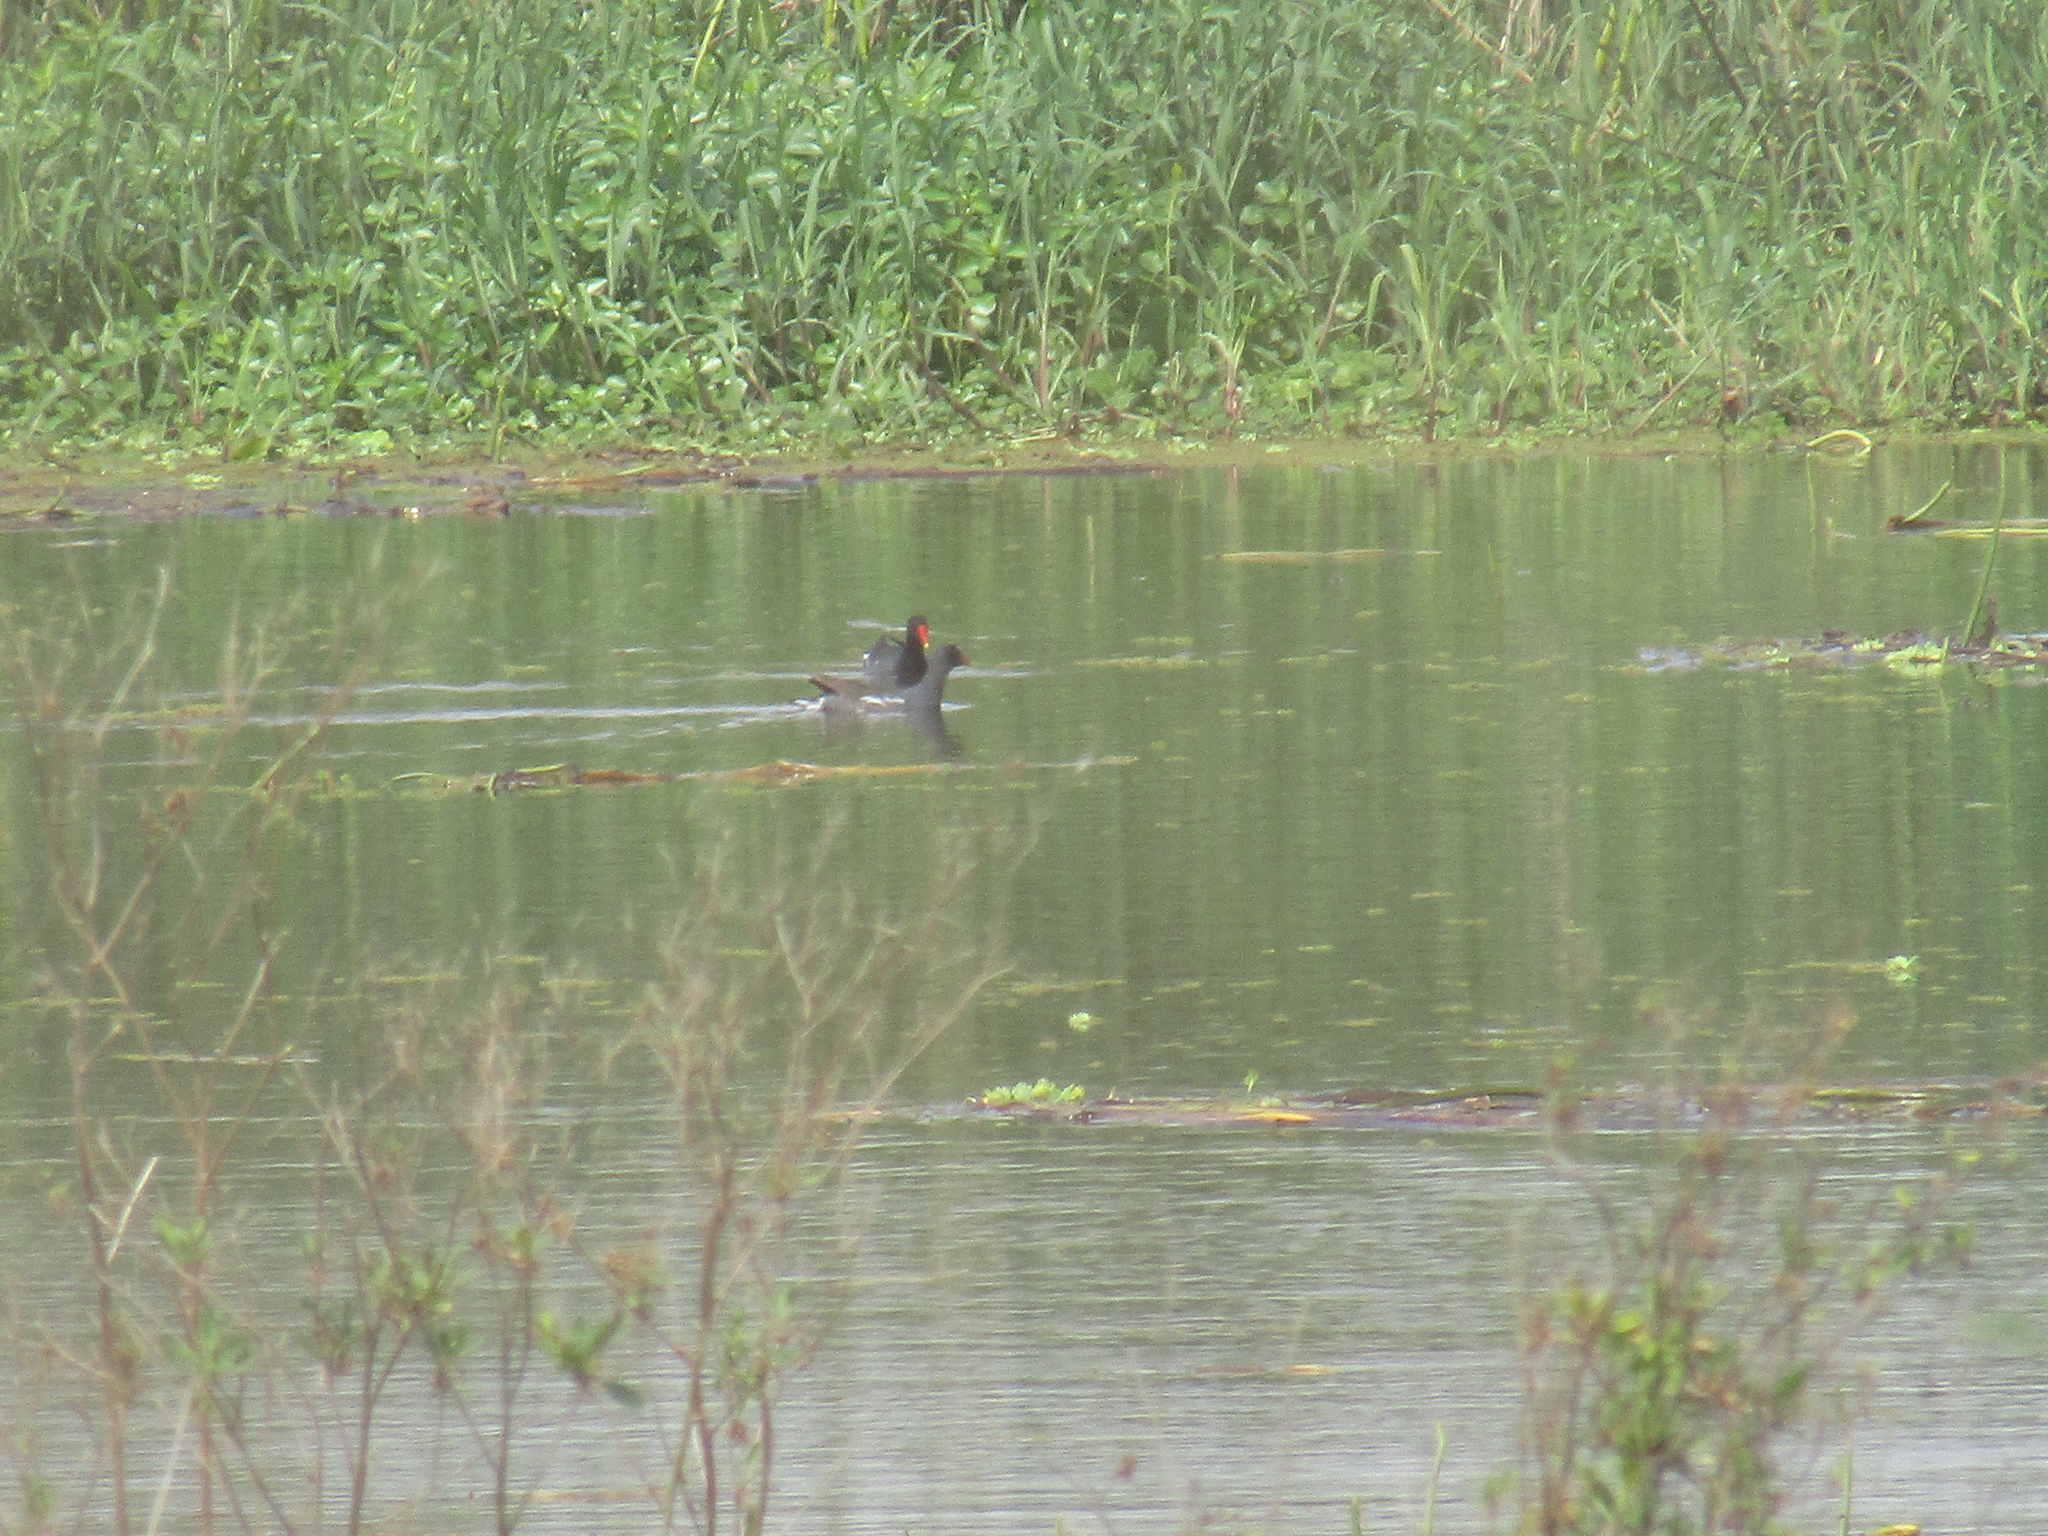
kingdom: Animalia
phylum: Chordata
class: Aves
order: Gruiformes
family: Rallidae
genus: Gallinula
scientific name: Gallinula chloropus
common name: Common moorhen
